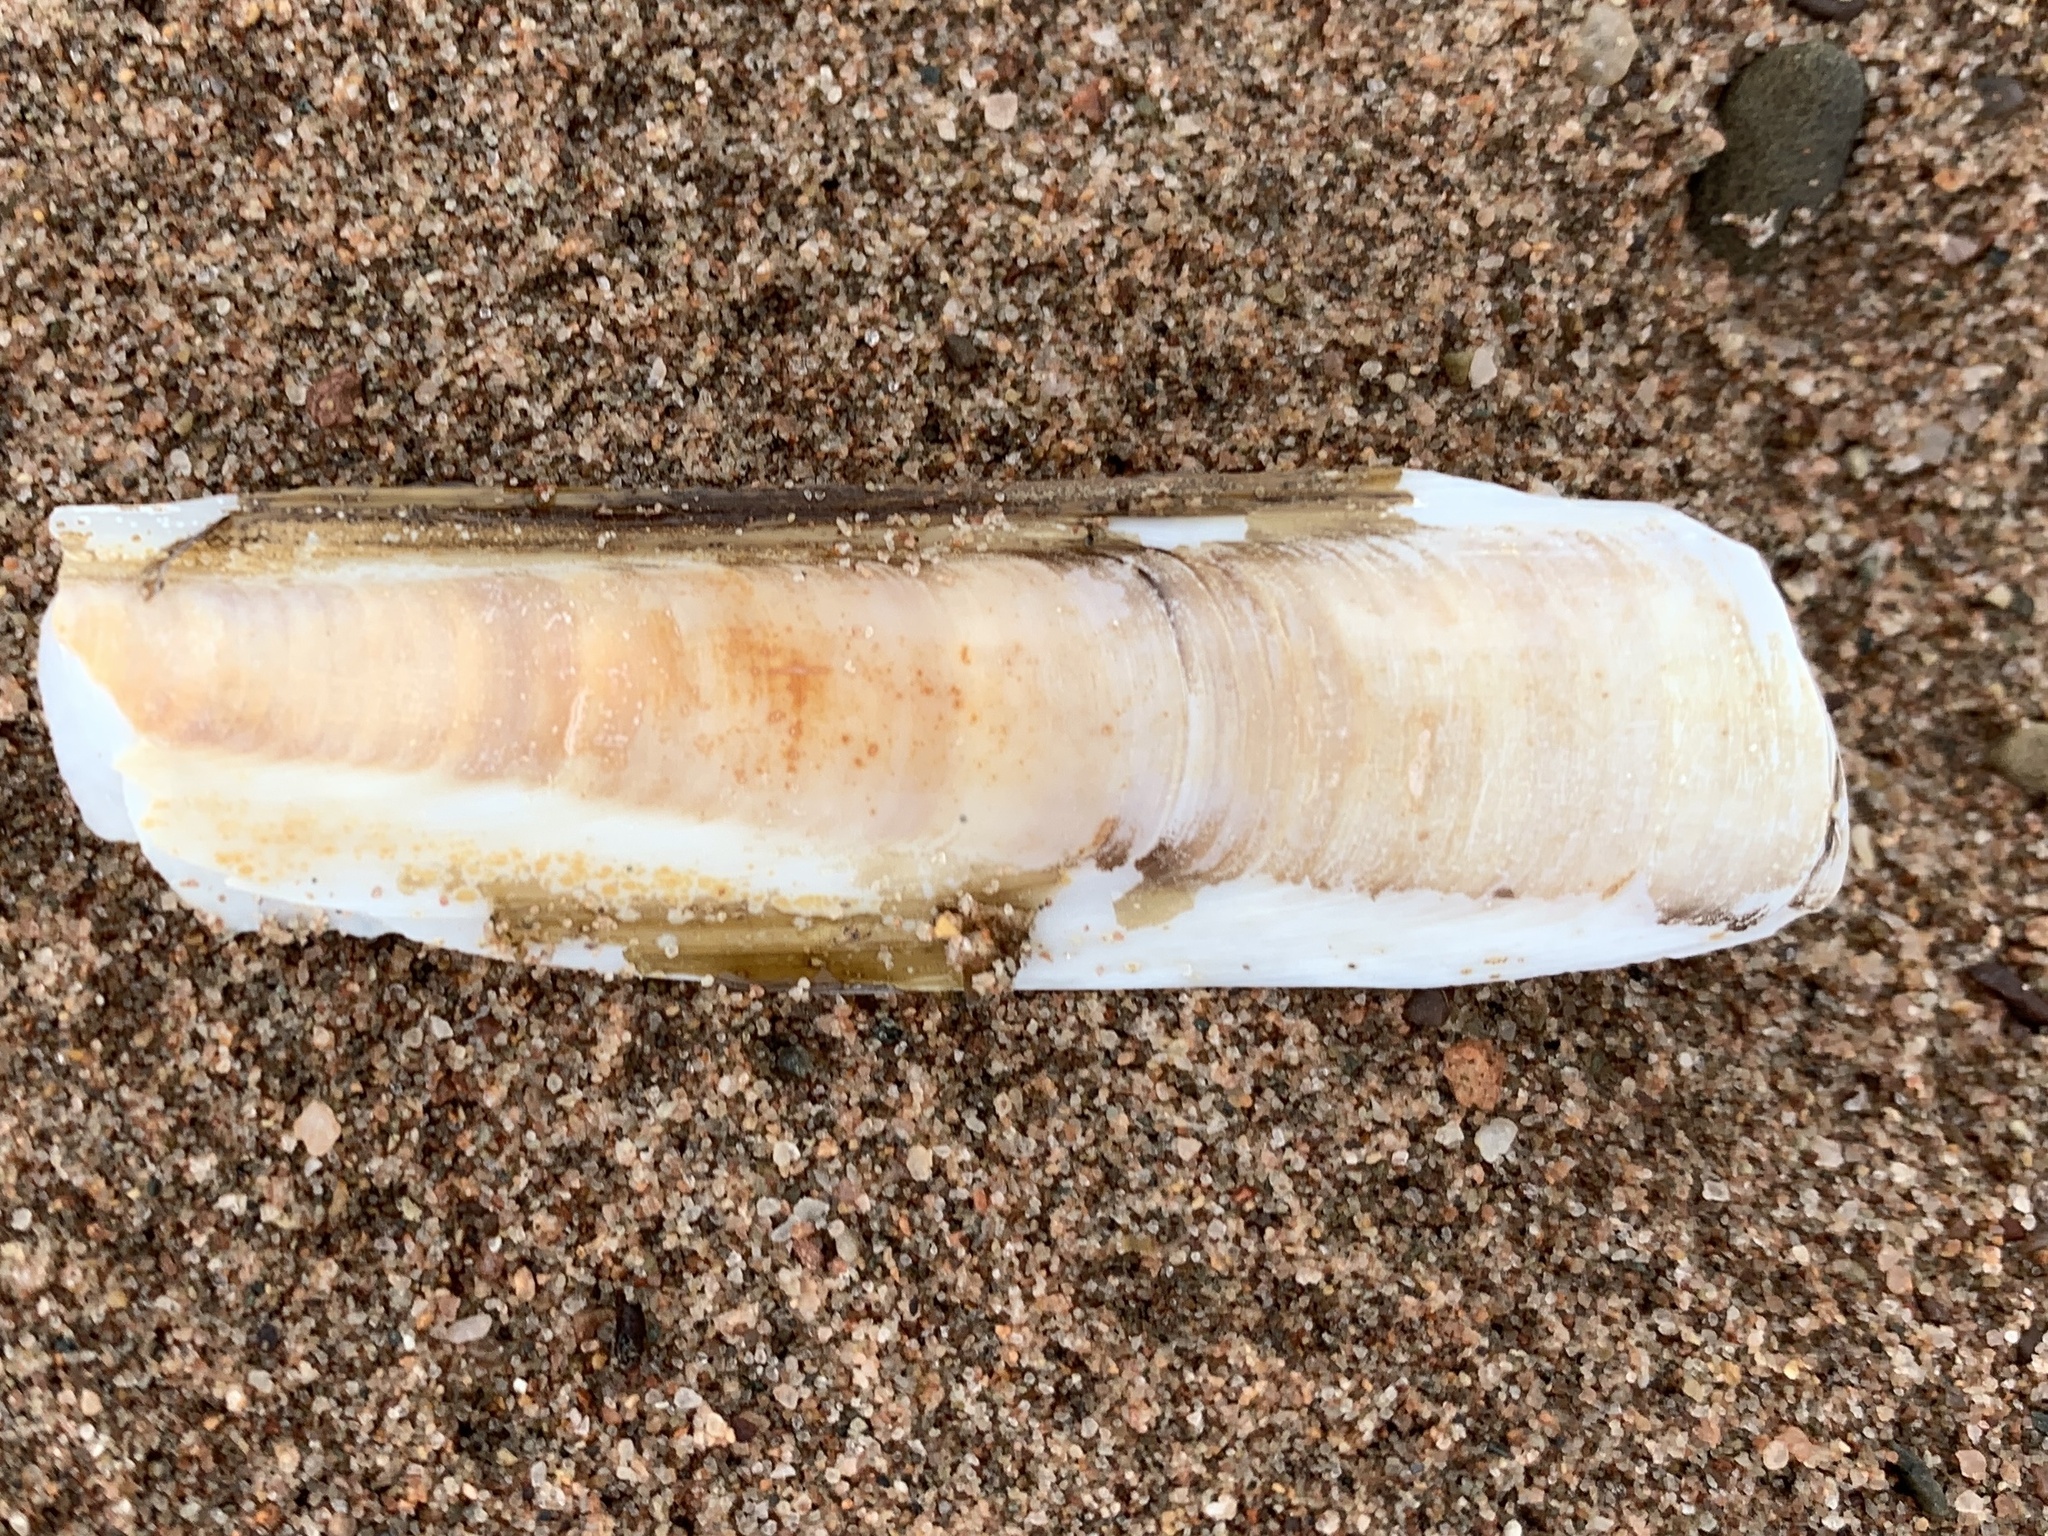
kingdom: Animalia
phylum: Mollusca
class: Bivalvia
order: Adapedonta
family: Pharidae
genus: Ensis
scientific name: Ensis leei
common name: American jack knife clam
